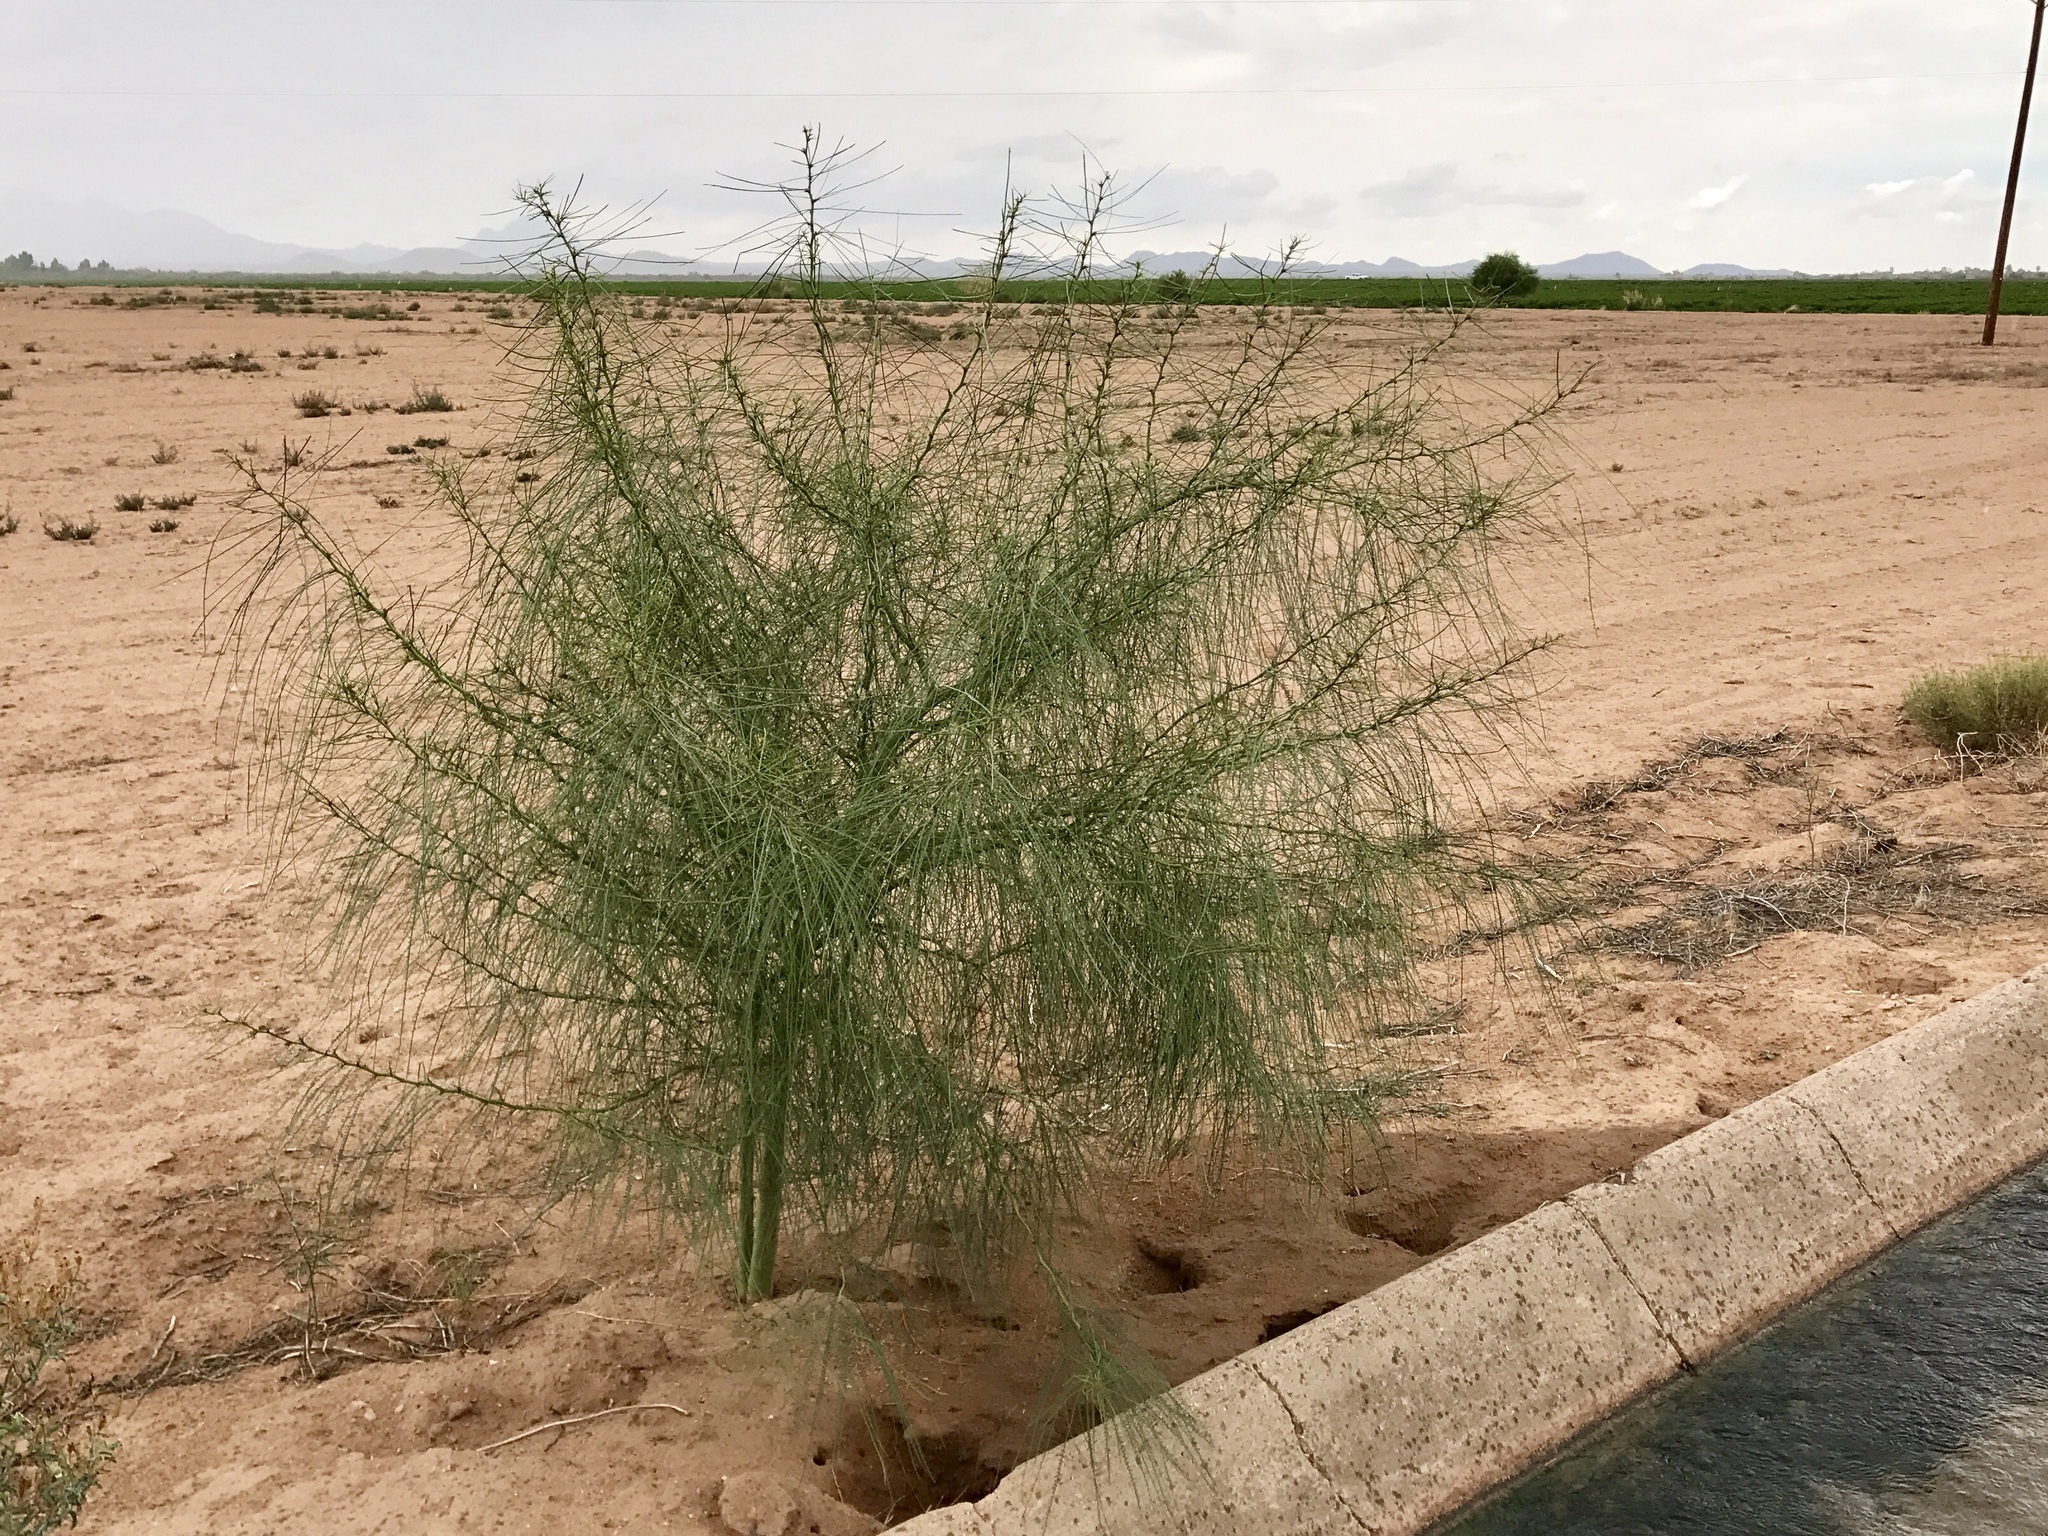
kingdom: Plantae
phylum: Tracheophyta
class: Magnoliopsida
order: Fabales
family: Fabaceae
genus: Parkinsonia
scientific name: Parkinsonia aculeata
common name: Jerusalem thorn
